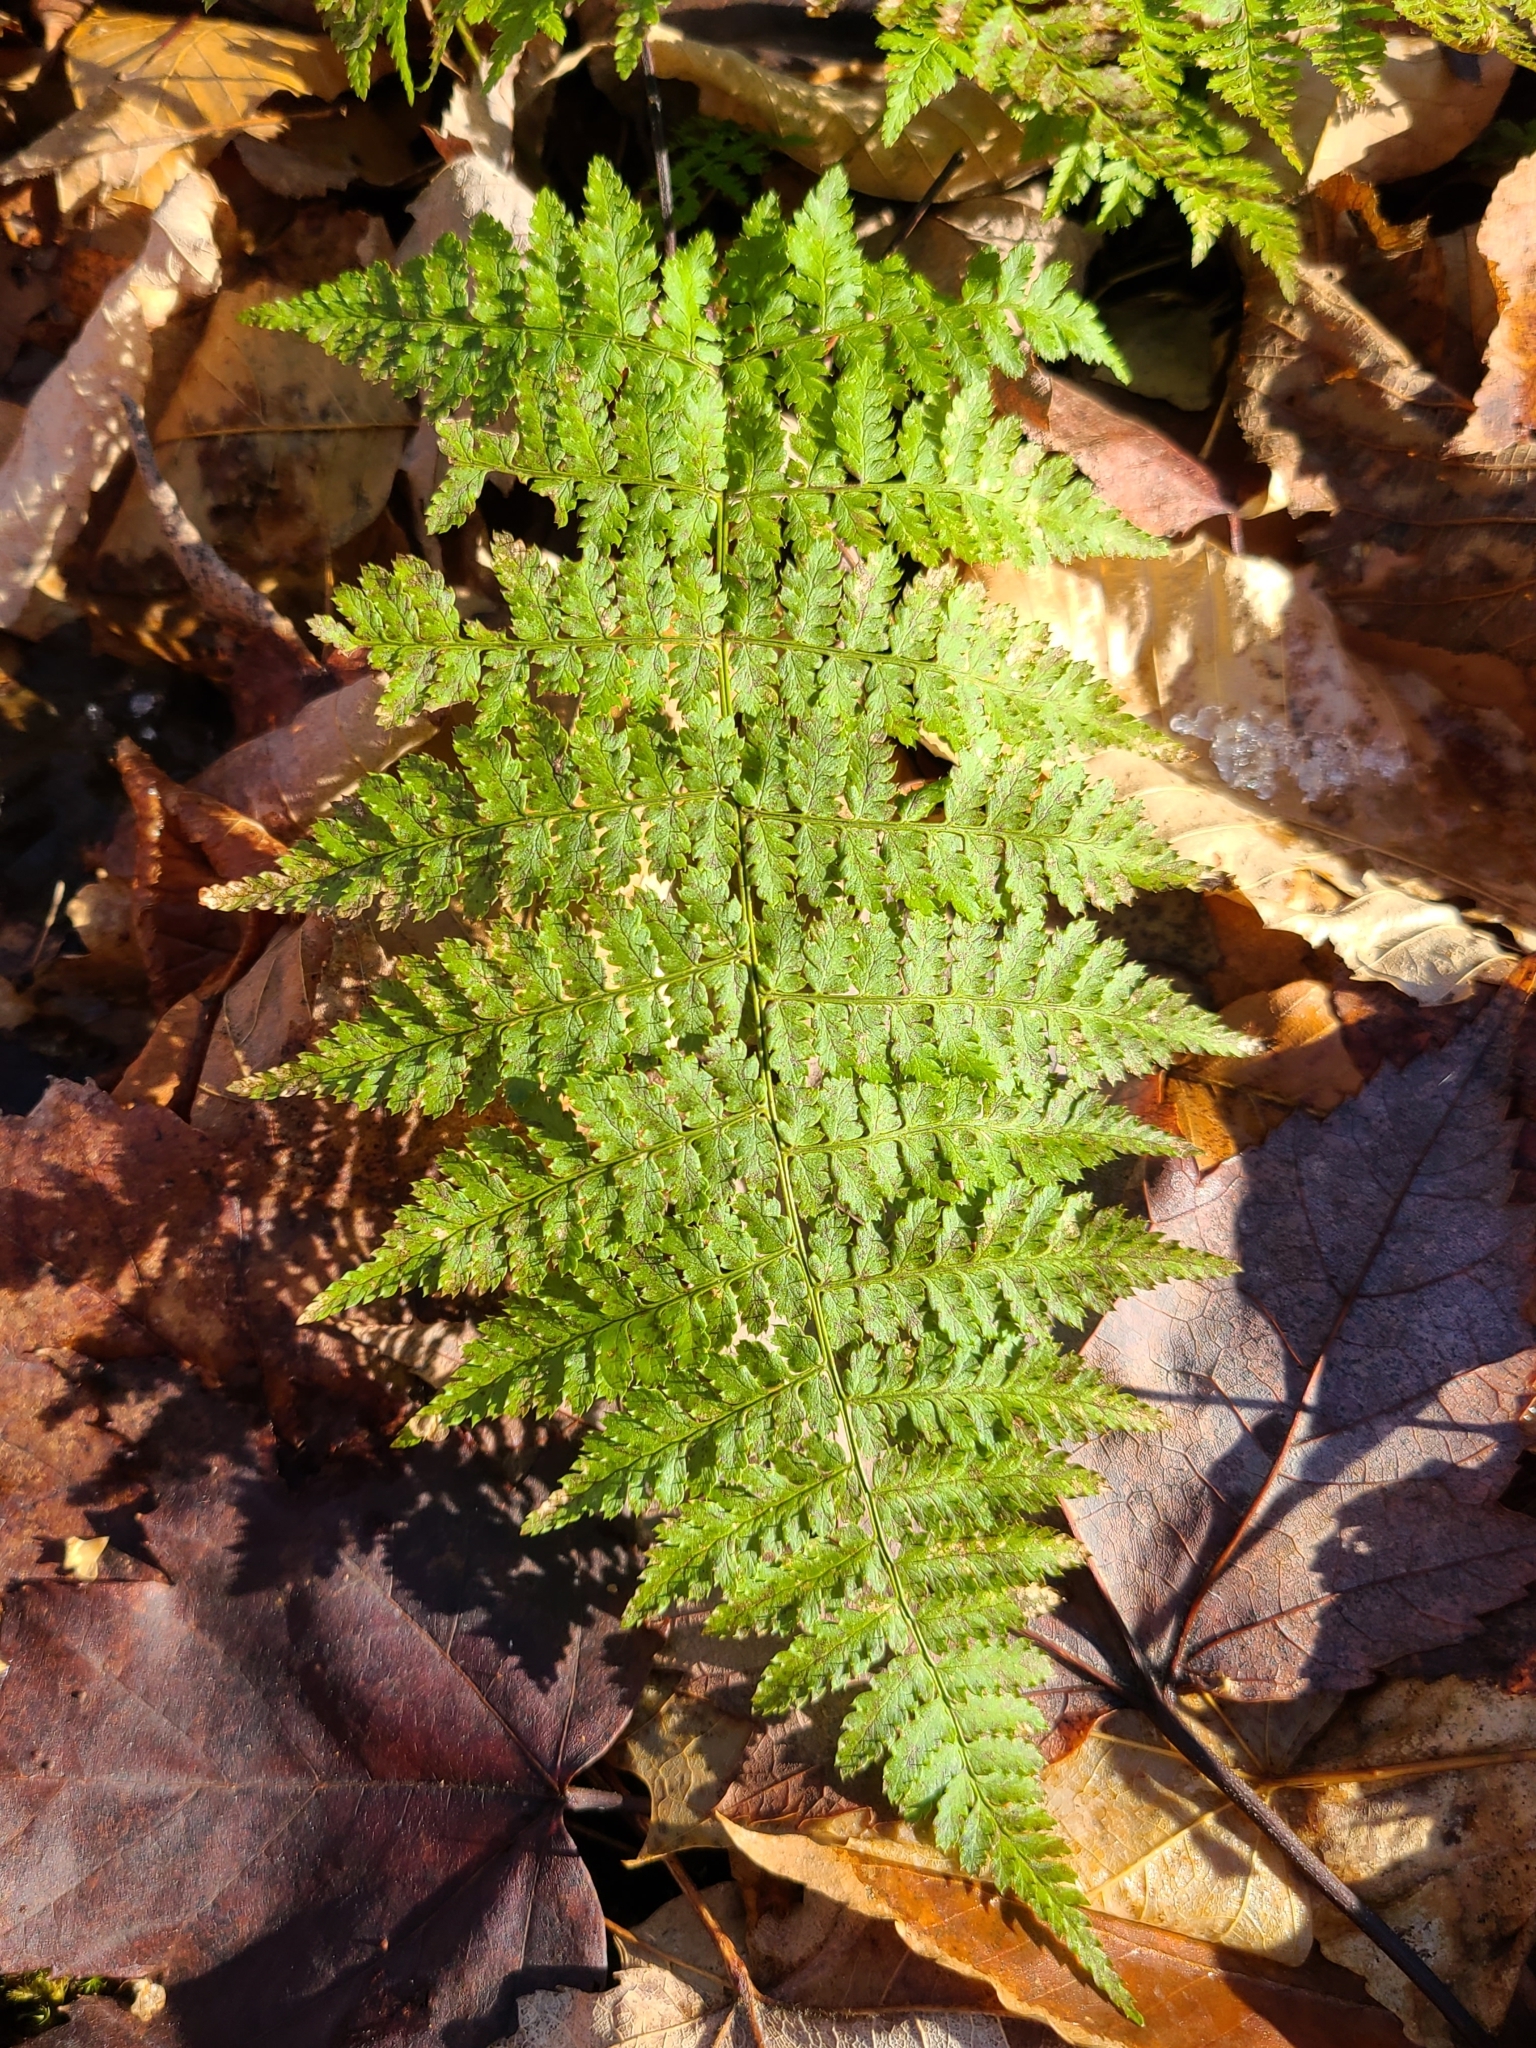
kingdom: Plantae
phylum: Tracheophyta
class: Polypodiopsida
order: Polypodiales
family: Dryopteridaceae
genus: Dryopteris
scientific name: Dryopteris intermedia
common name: Evergreen wood fern
